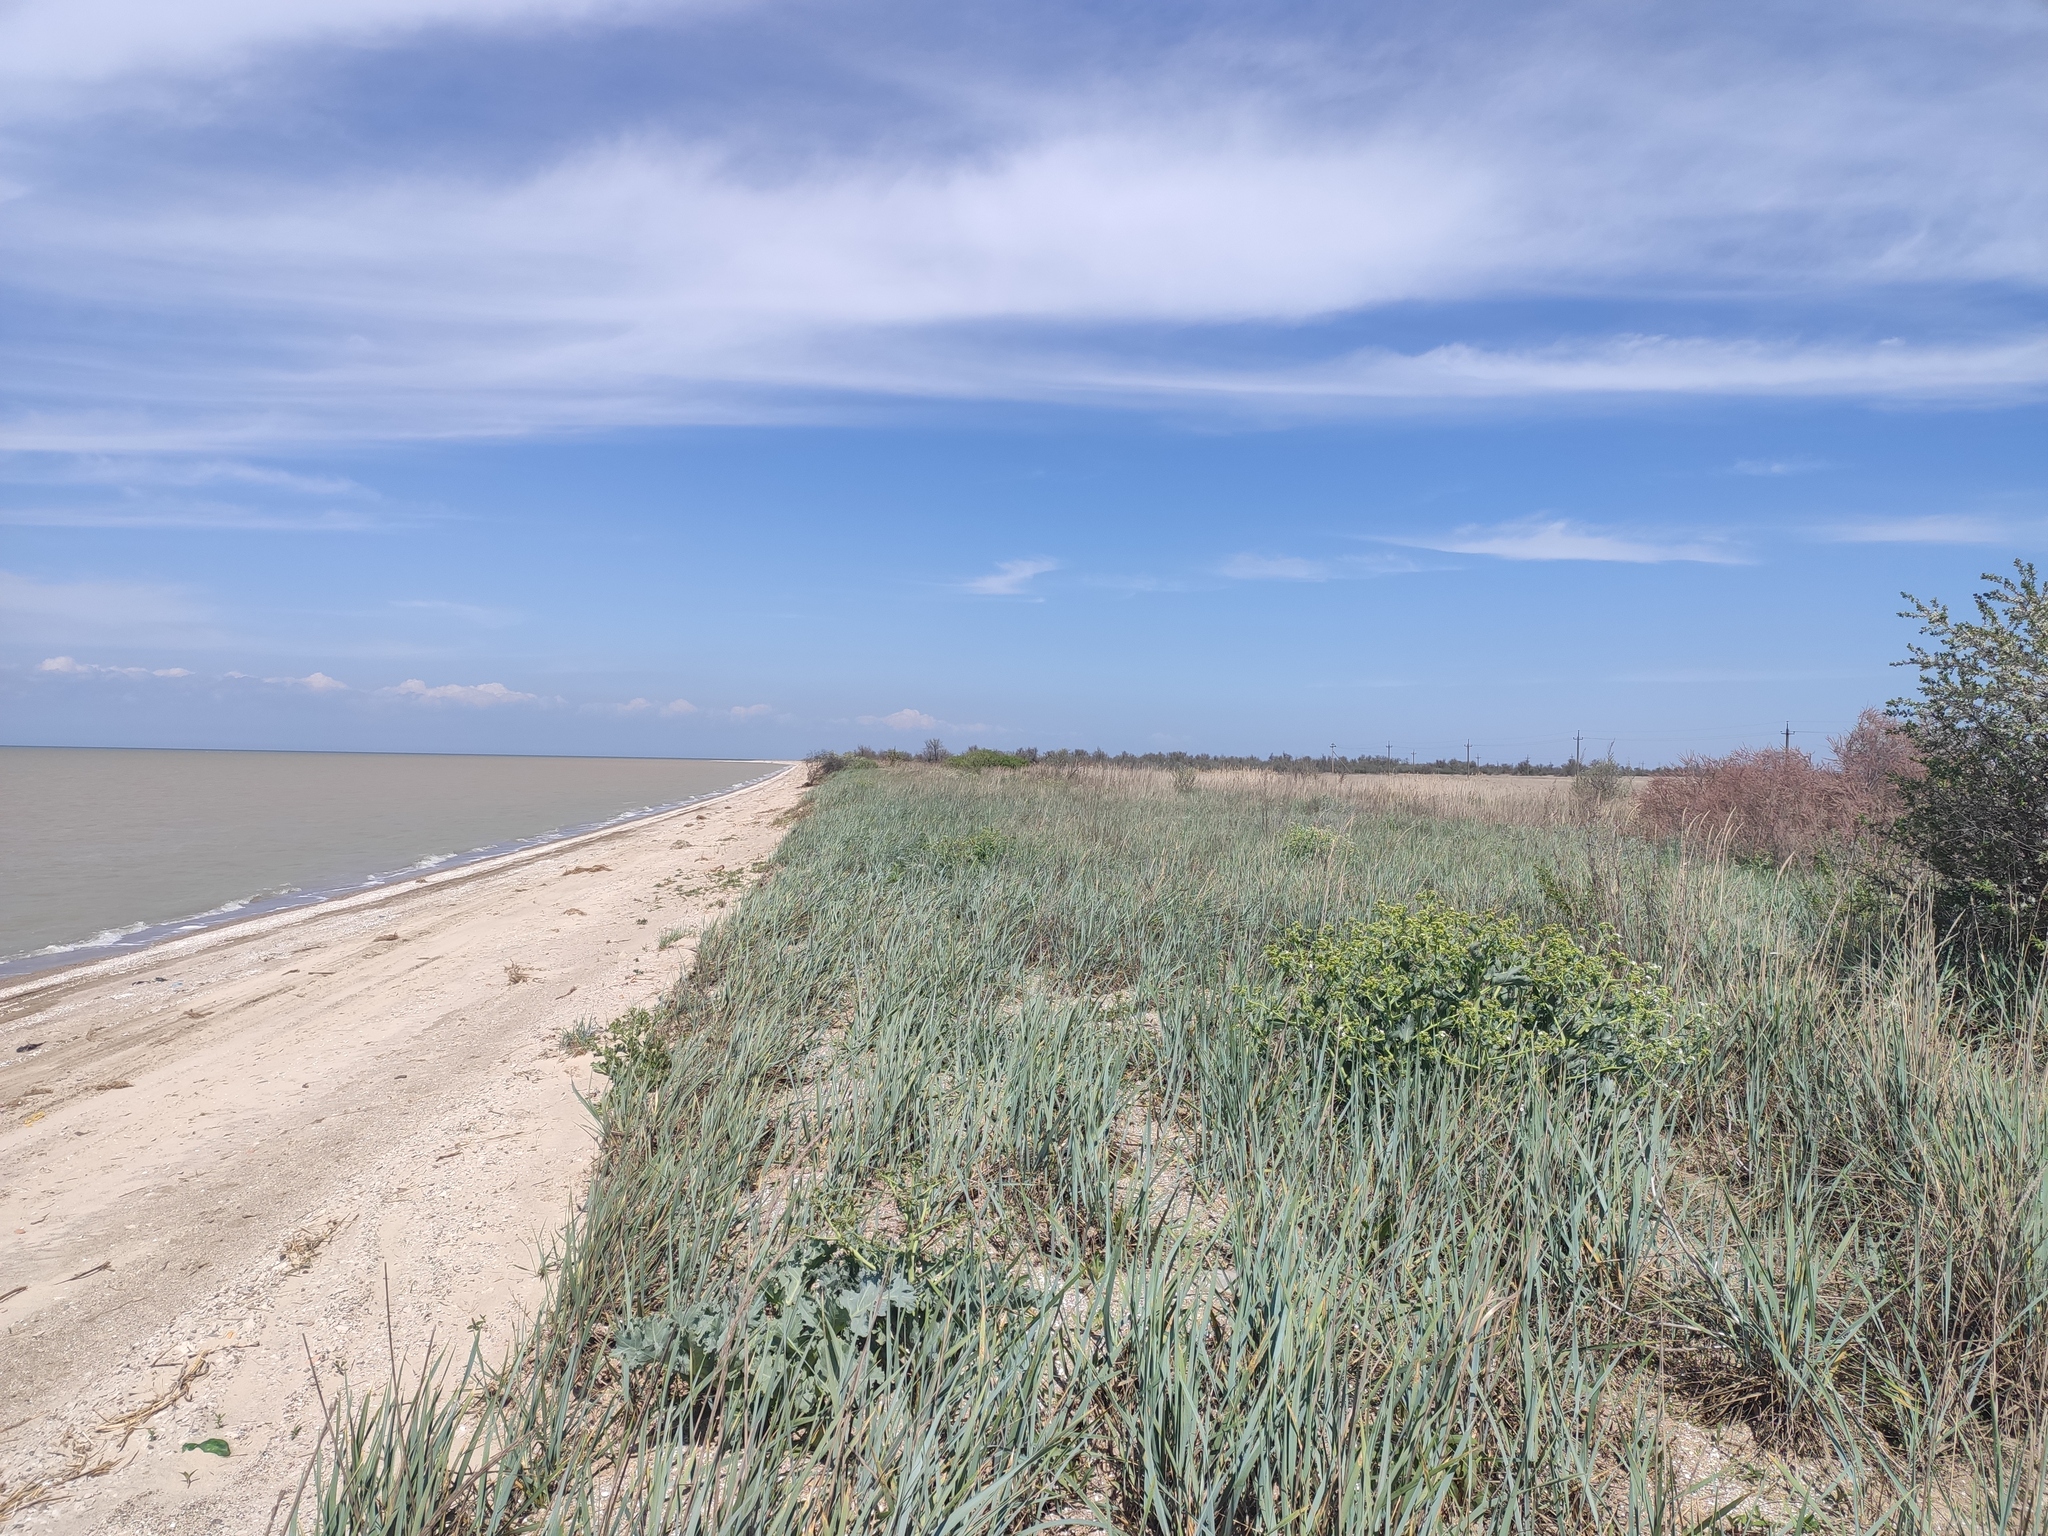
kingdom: Plantae
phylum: Tracheophyta
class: Liliopsida
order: Poales
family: Poaceae
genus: Leymus
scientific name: Leymus racemosus
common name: Mammoth wildrye
